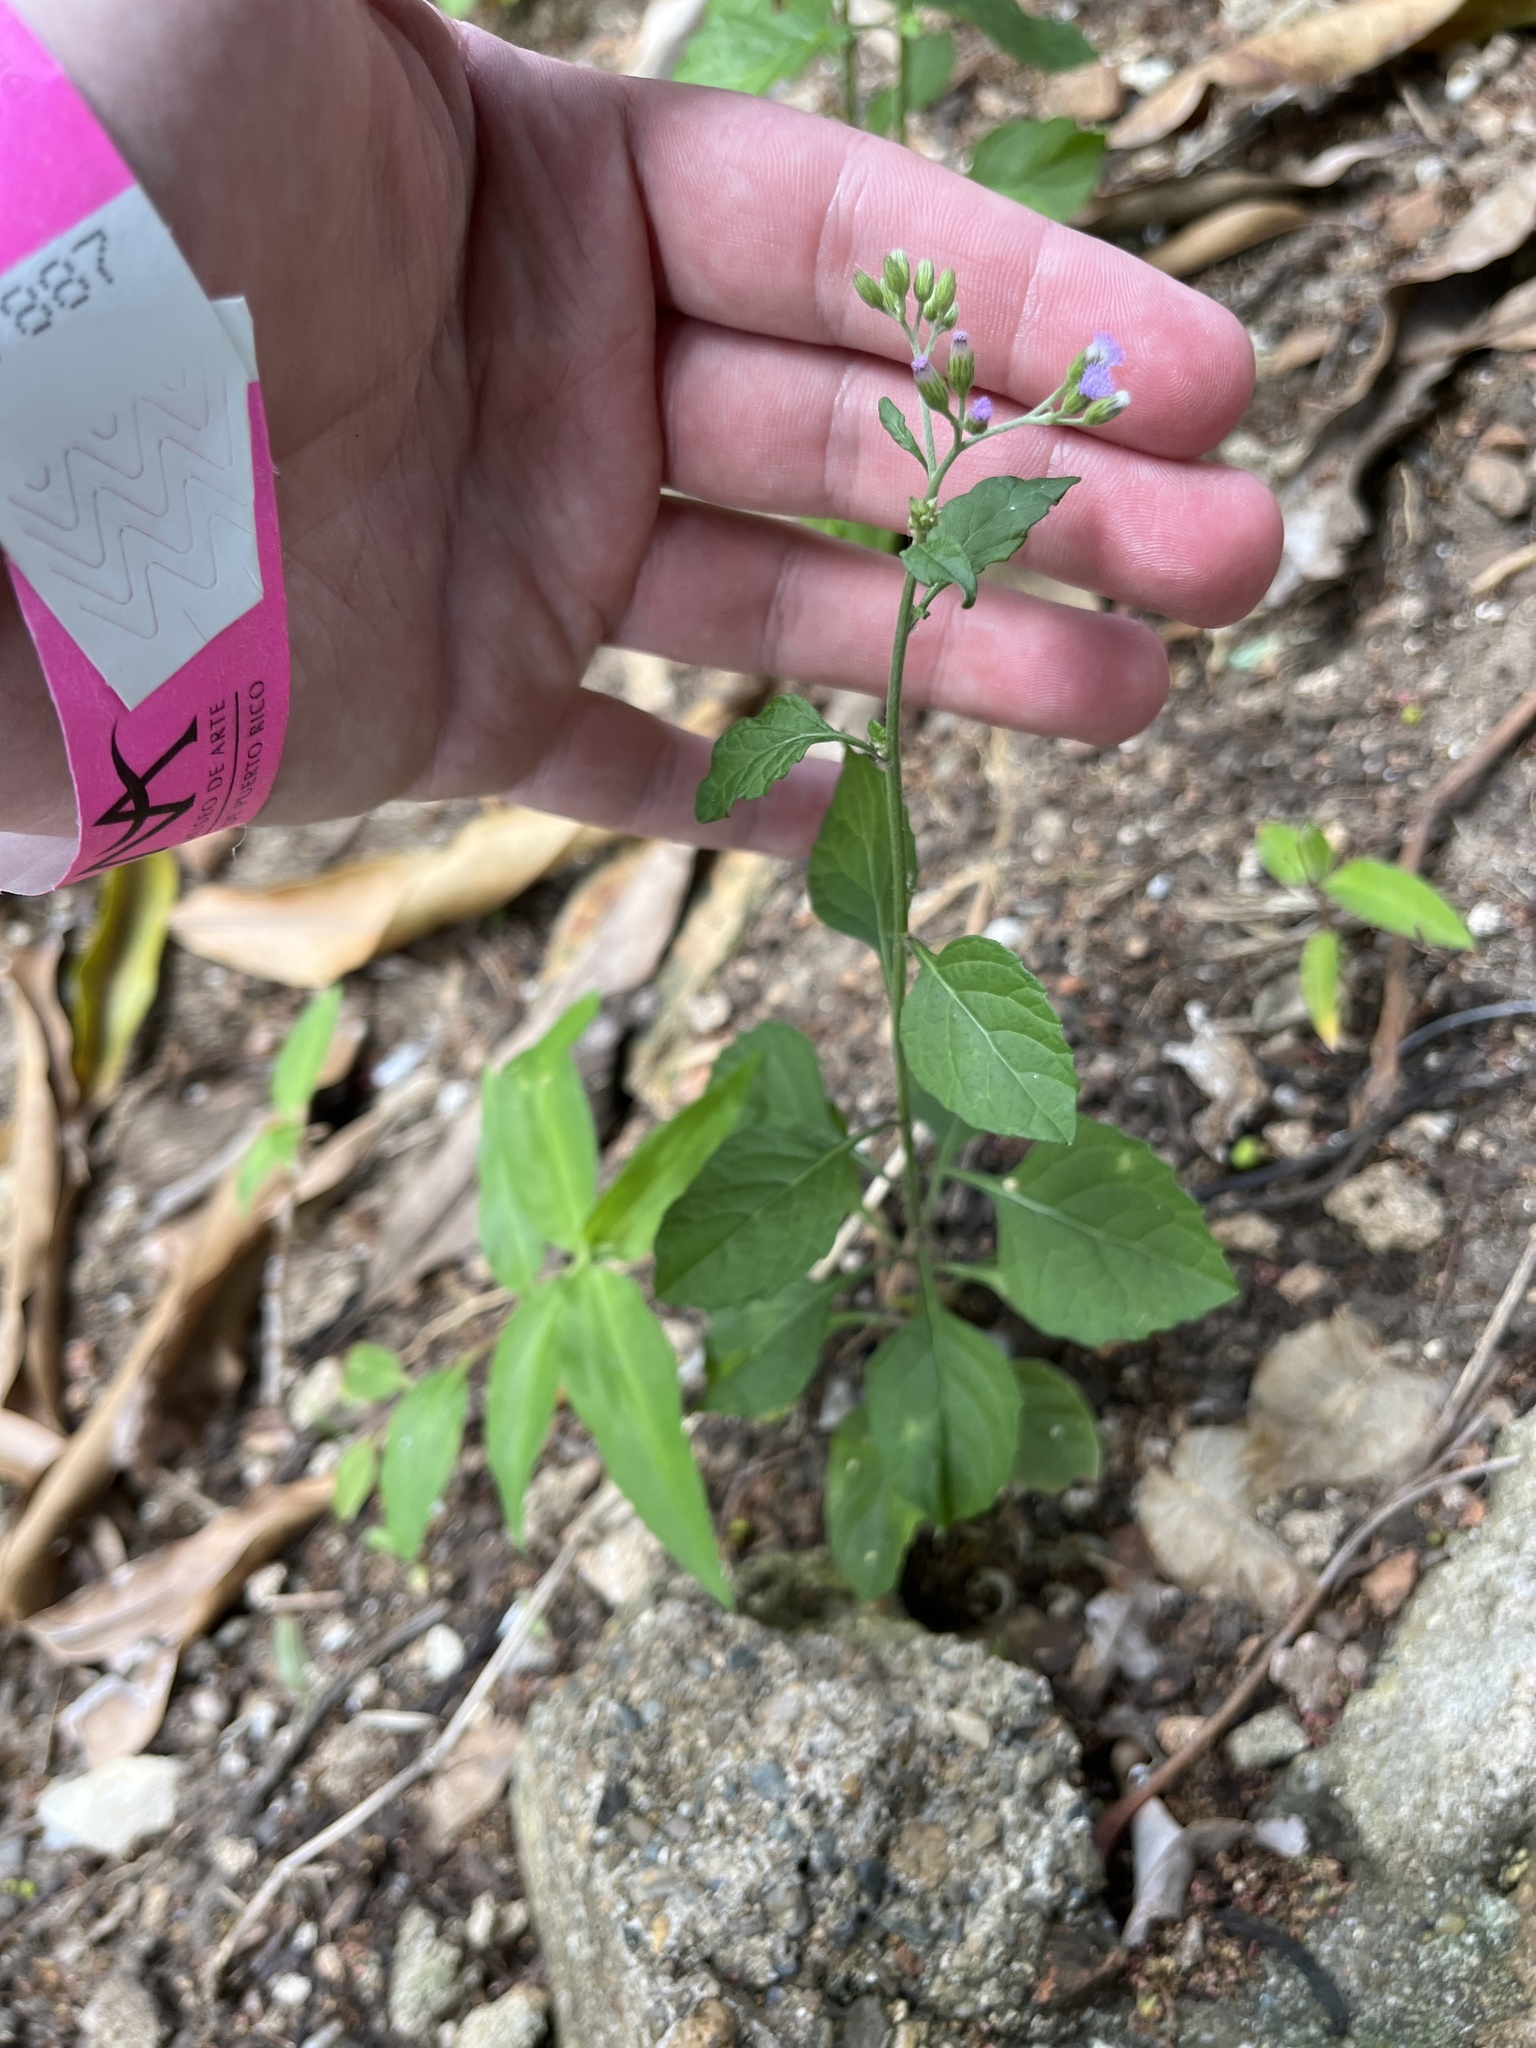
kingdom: Plantae
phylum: Tracheophyta
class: Magnoliopsida
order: Asterales
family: Asteraceae
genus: Cyanthillium
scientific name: Cyanthillium cinereum
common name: Little ironweed
